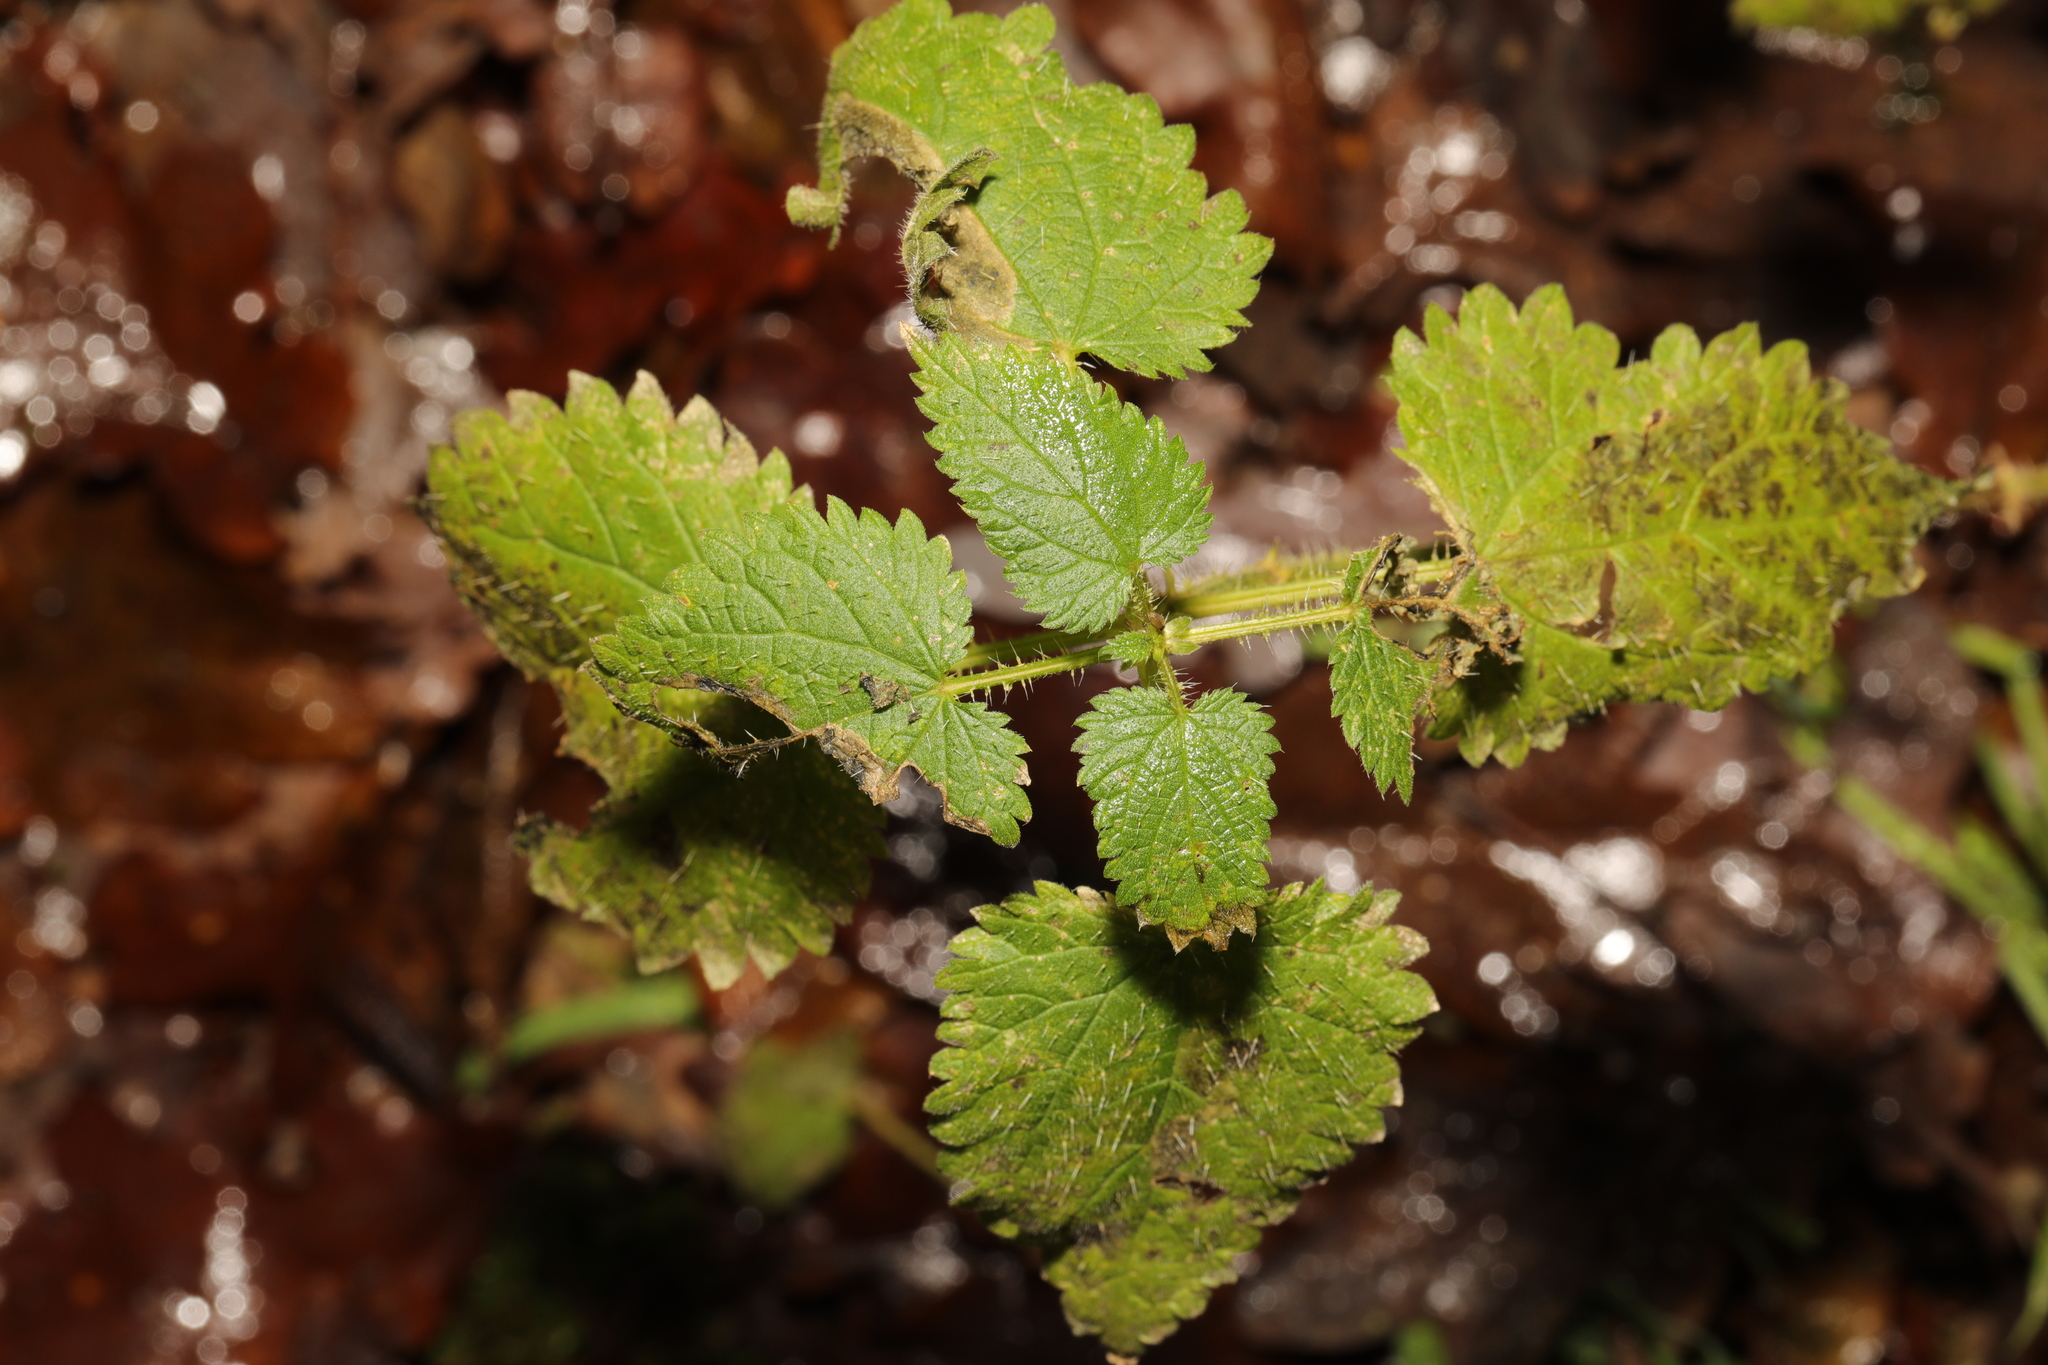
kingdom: Plantae
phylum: Tracheophyta
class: Magnoliopsida
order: Rosales
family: Urticaceae
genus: Urtica
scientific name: Urtica dioica
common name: Common nettle
